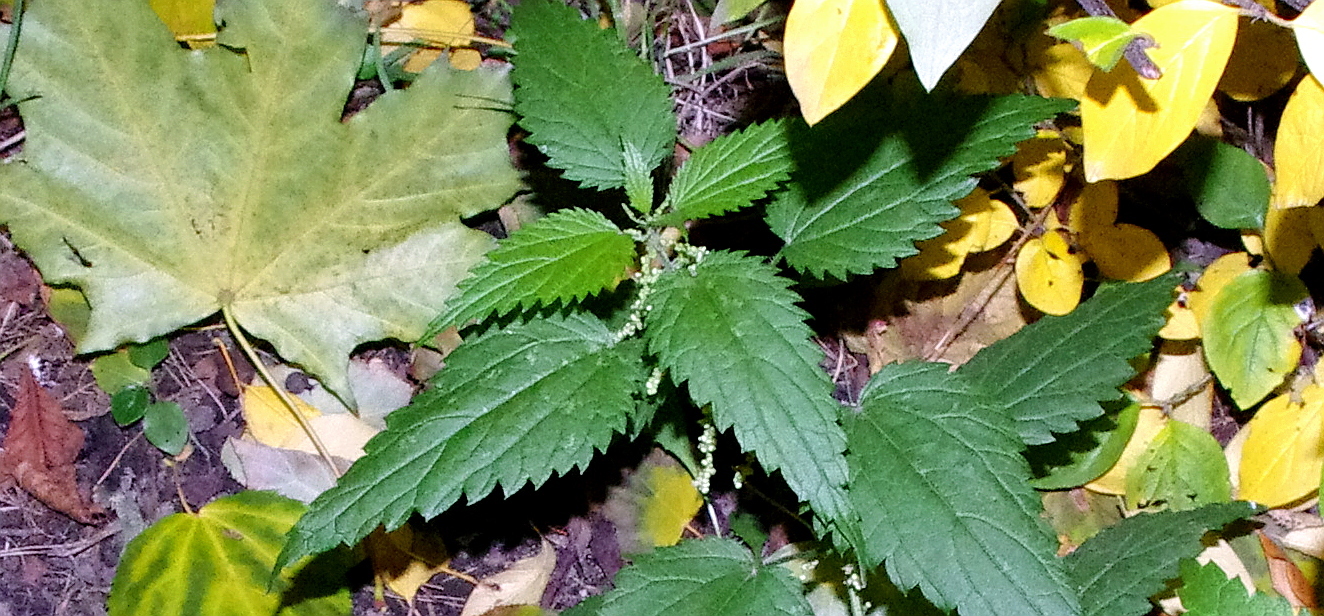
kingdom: Plantae
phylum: Tracheophyta
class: Magnoliopsida
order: Rosales
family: Urticaceae
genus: Urtica
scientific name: Urtica dioica
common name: Common nettle
